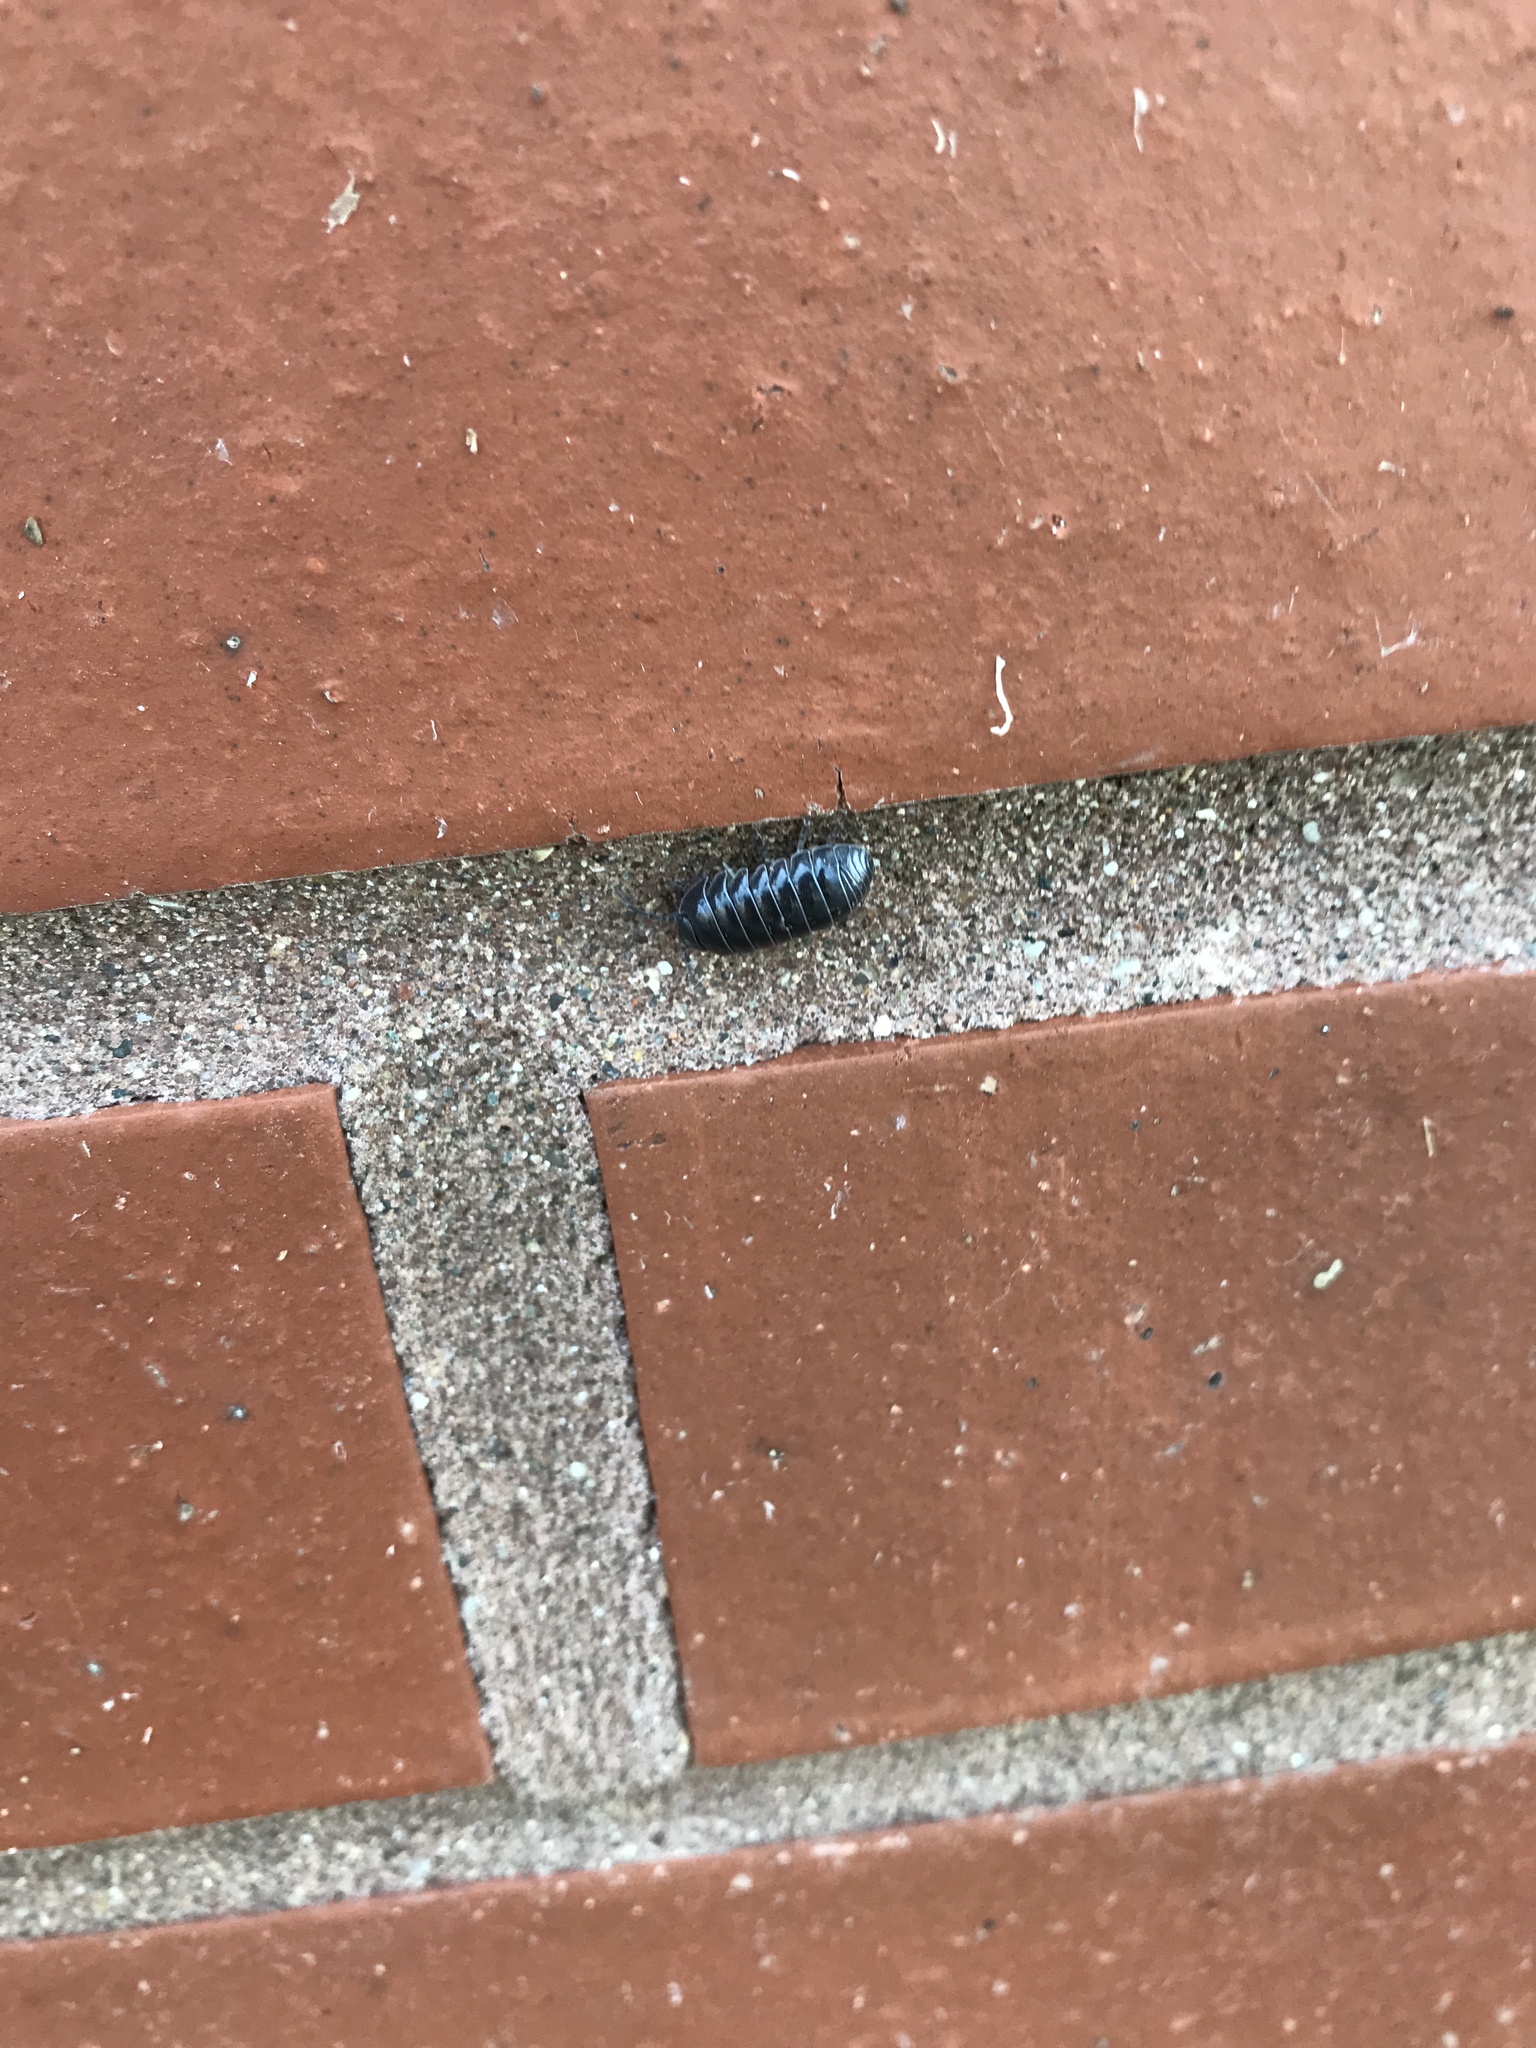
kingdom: Animalia
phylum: Arthropoda
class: Malacostraca
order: Isopoda
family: Armadillidiidae
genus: Armadillidium
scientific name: Armadillidium vulgare
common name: Common pill woodlouse
